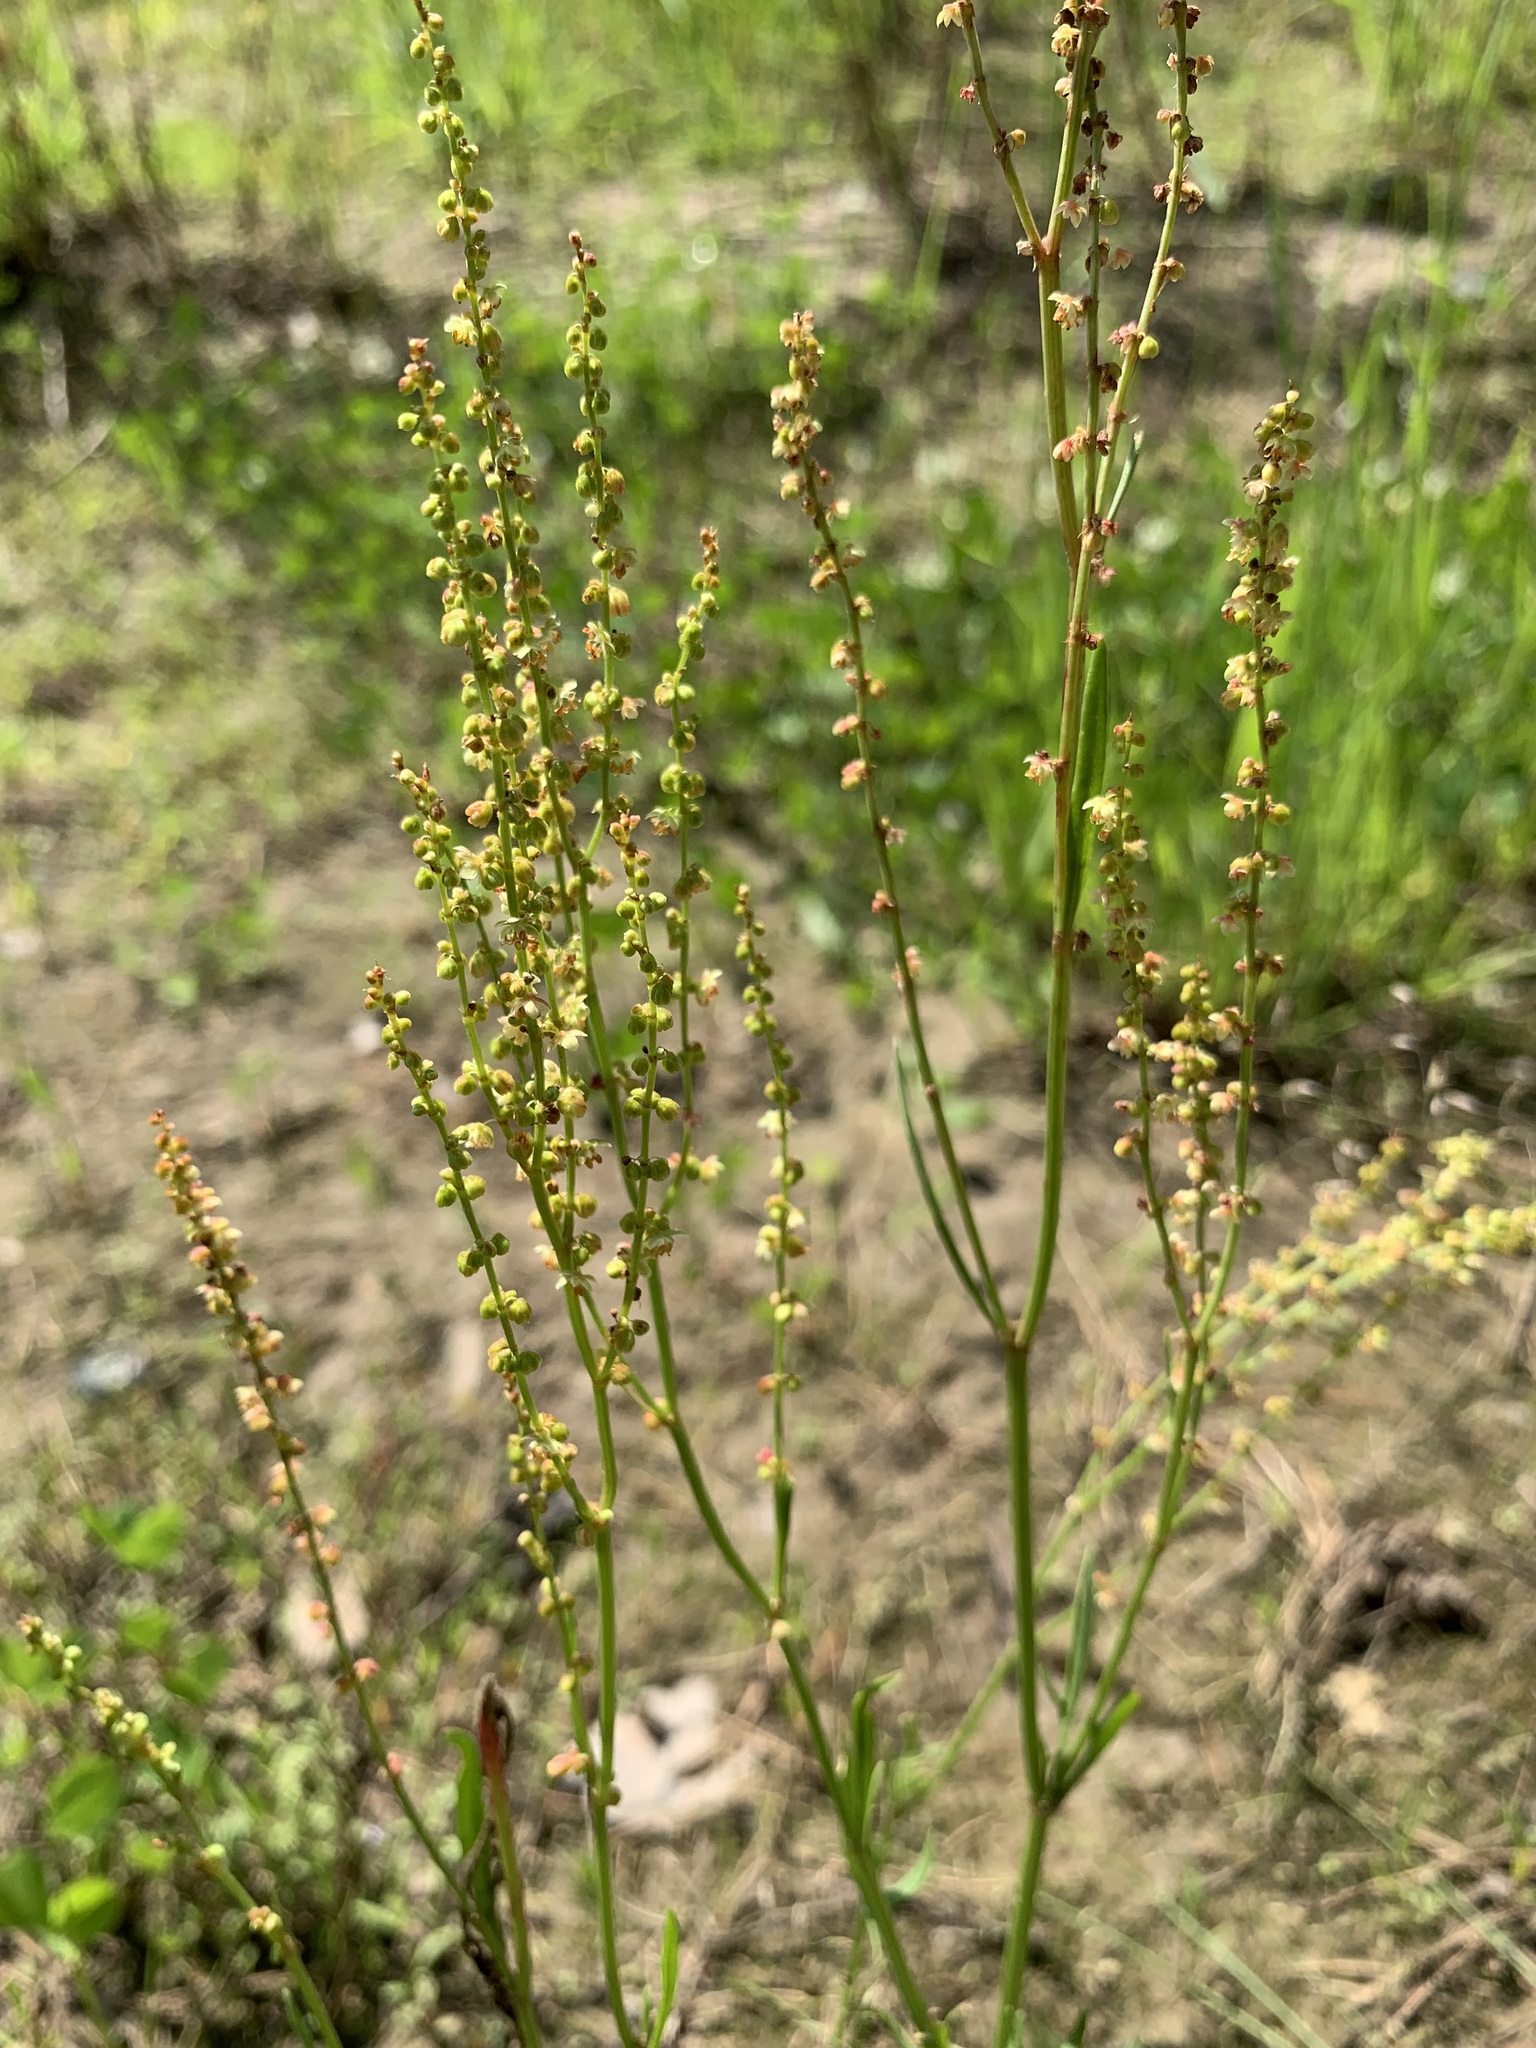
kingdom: Plantae
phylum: Tracheophyta
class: Magnoliopsida
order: Caryophyllales
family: Polygonaceae
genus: Rumex
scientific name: Rumex acetosella
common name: Common sheep sorrel
